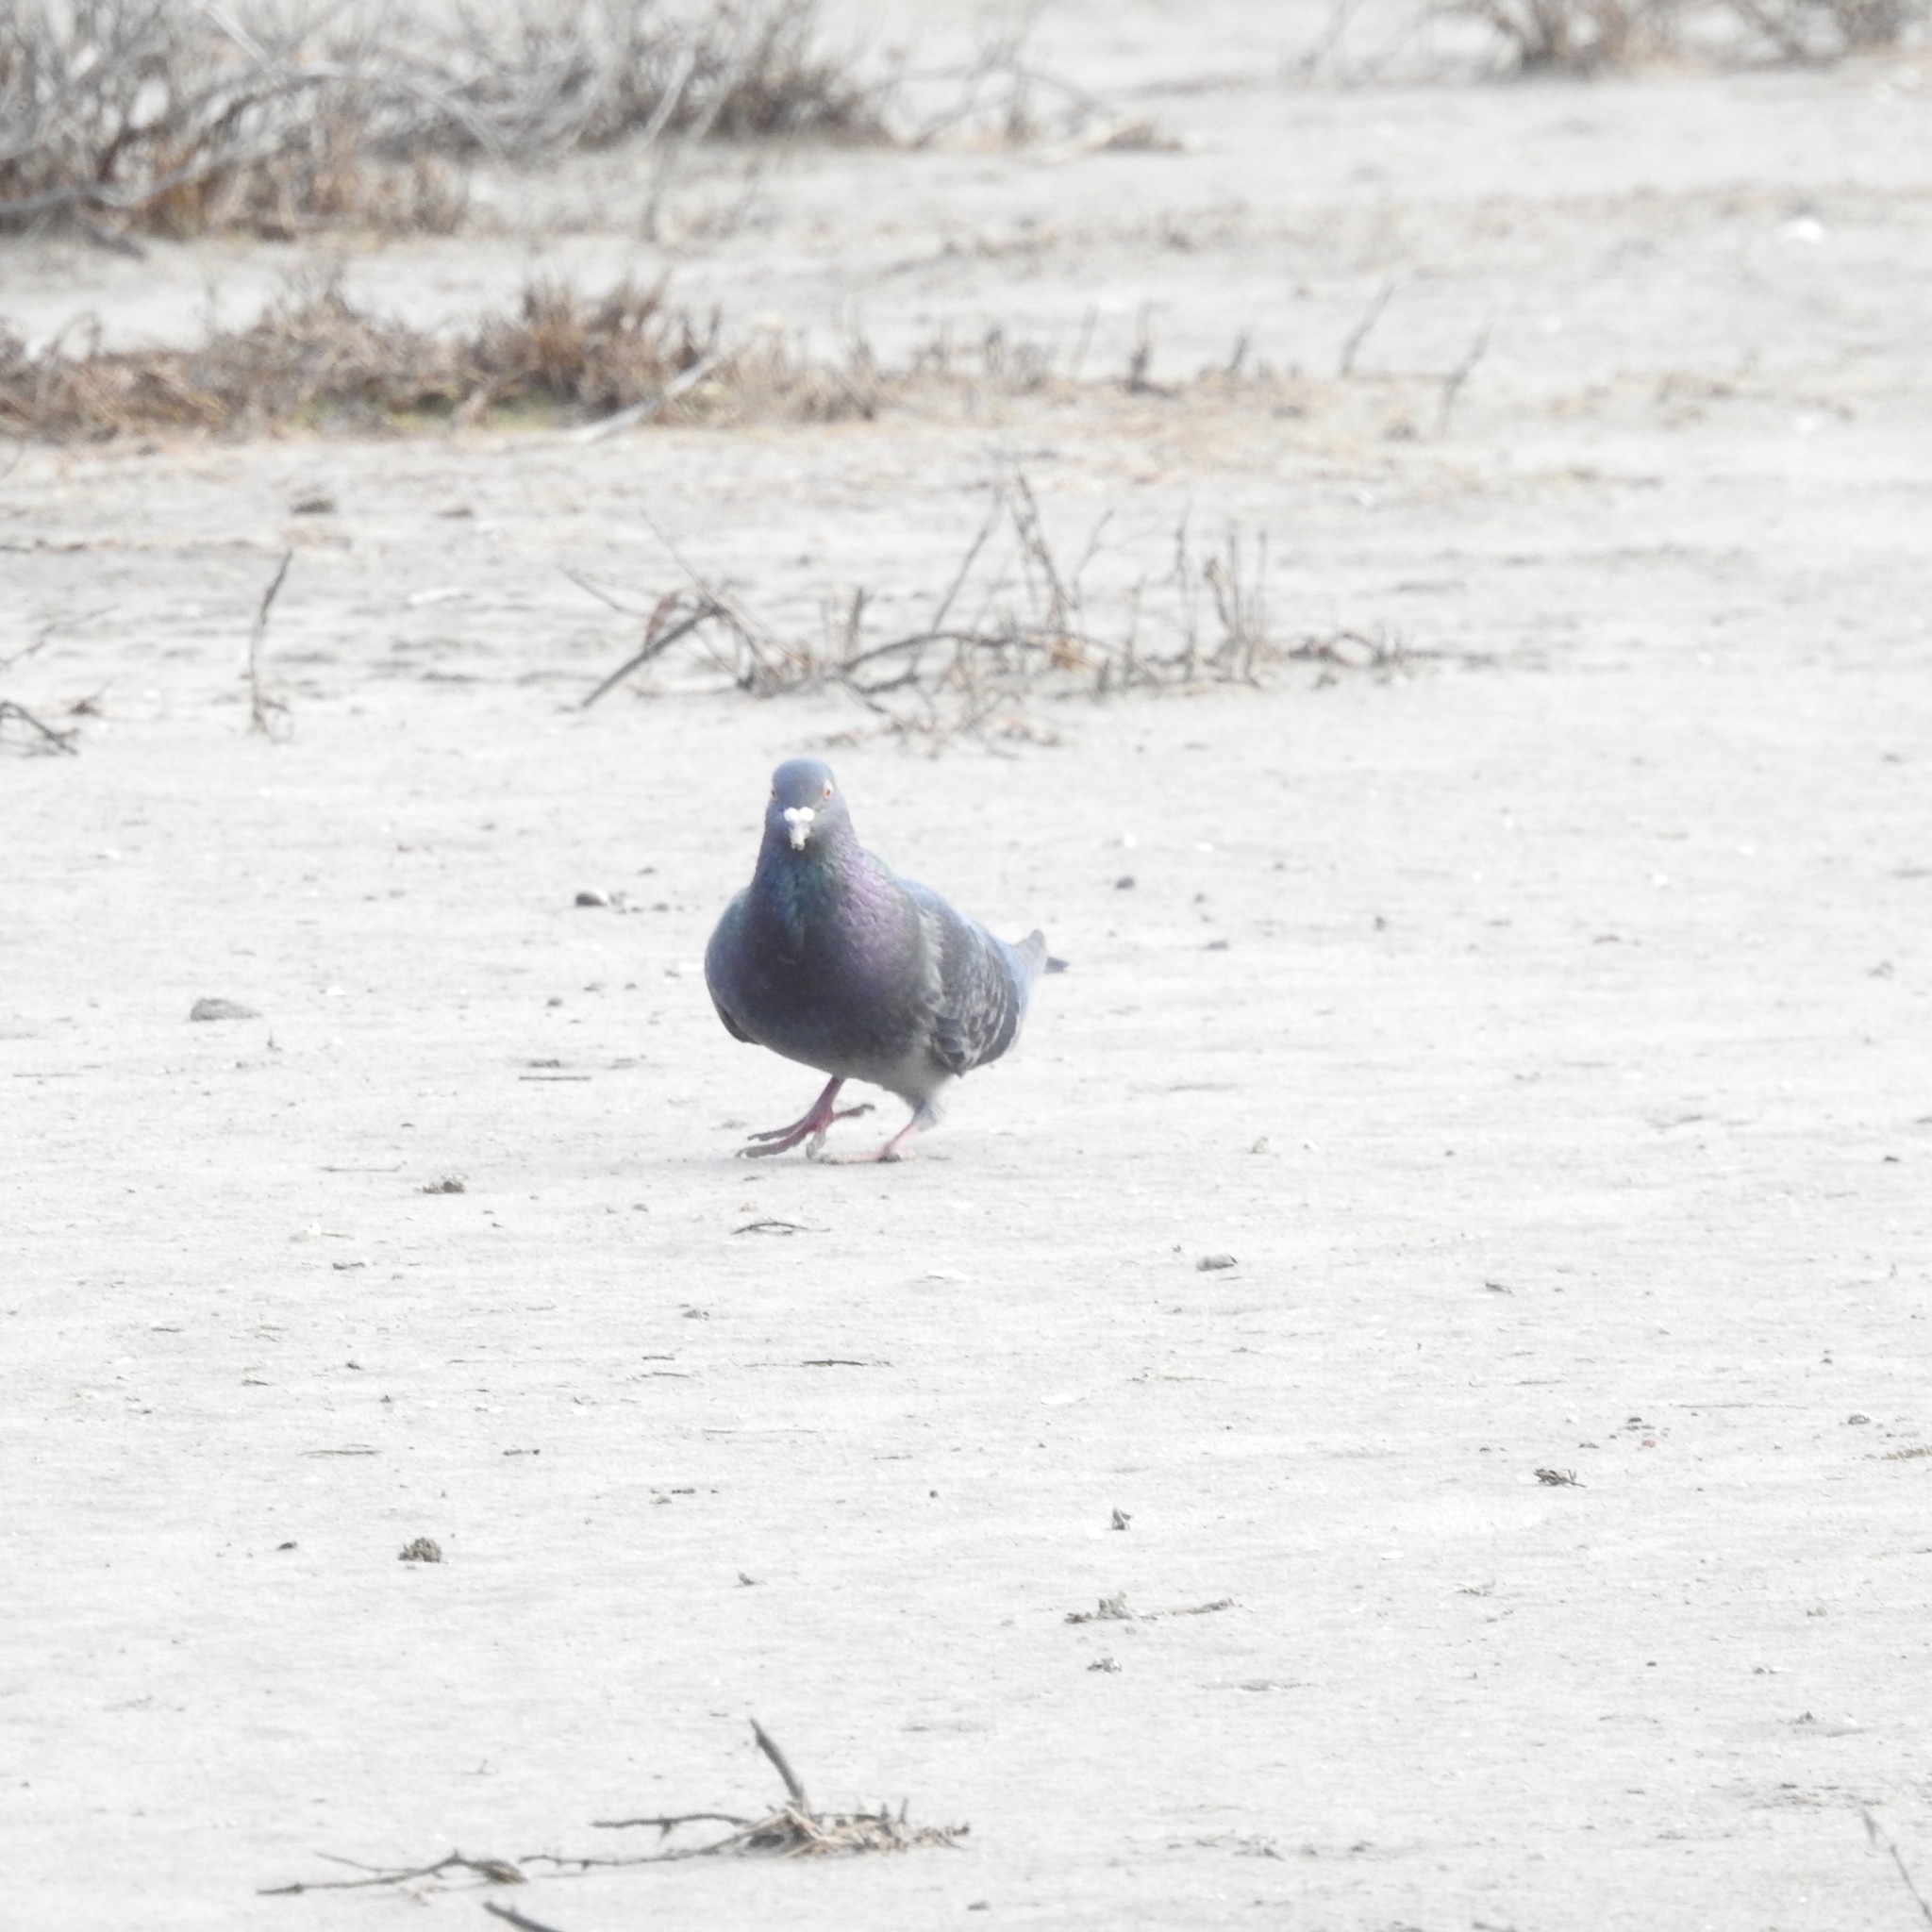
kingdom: Animalia
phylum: Chordata
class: Aves
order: Columbiformes
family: Columbidae
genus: Columba
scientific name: Columba livia
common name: Rock pigeon
